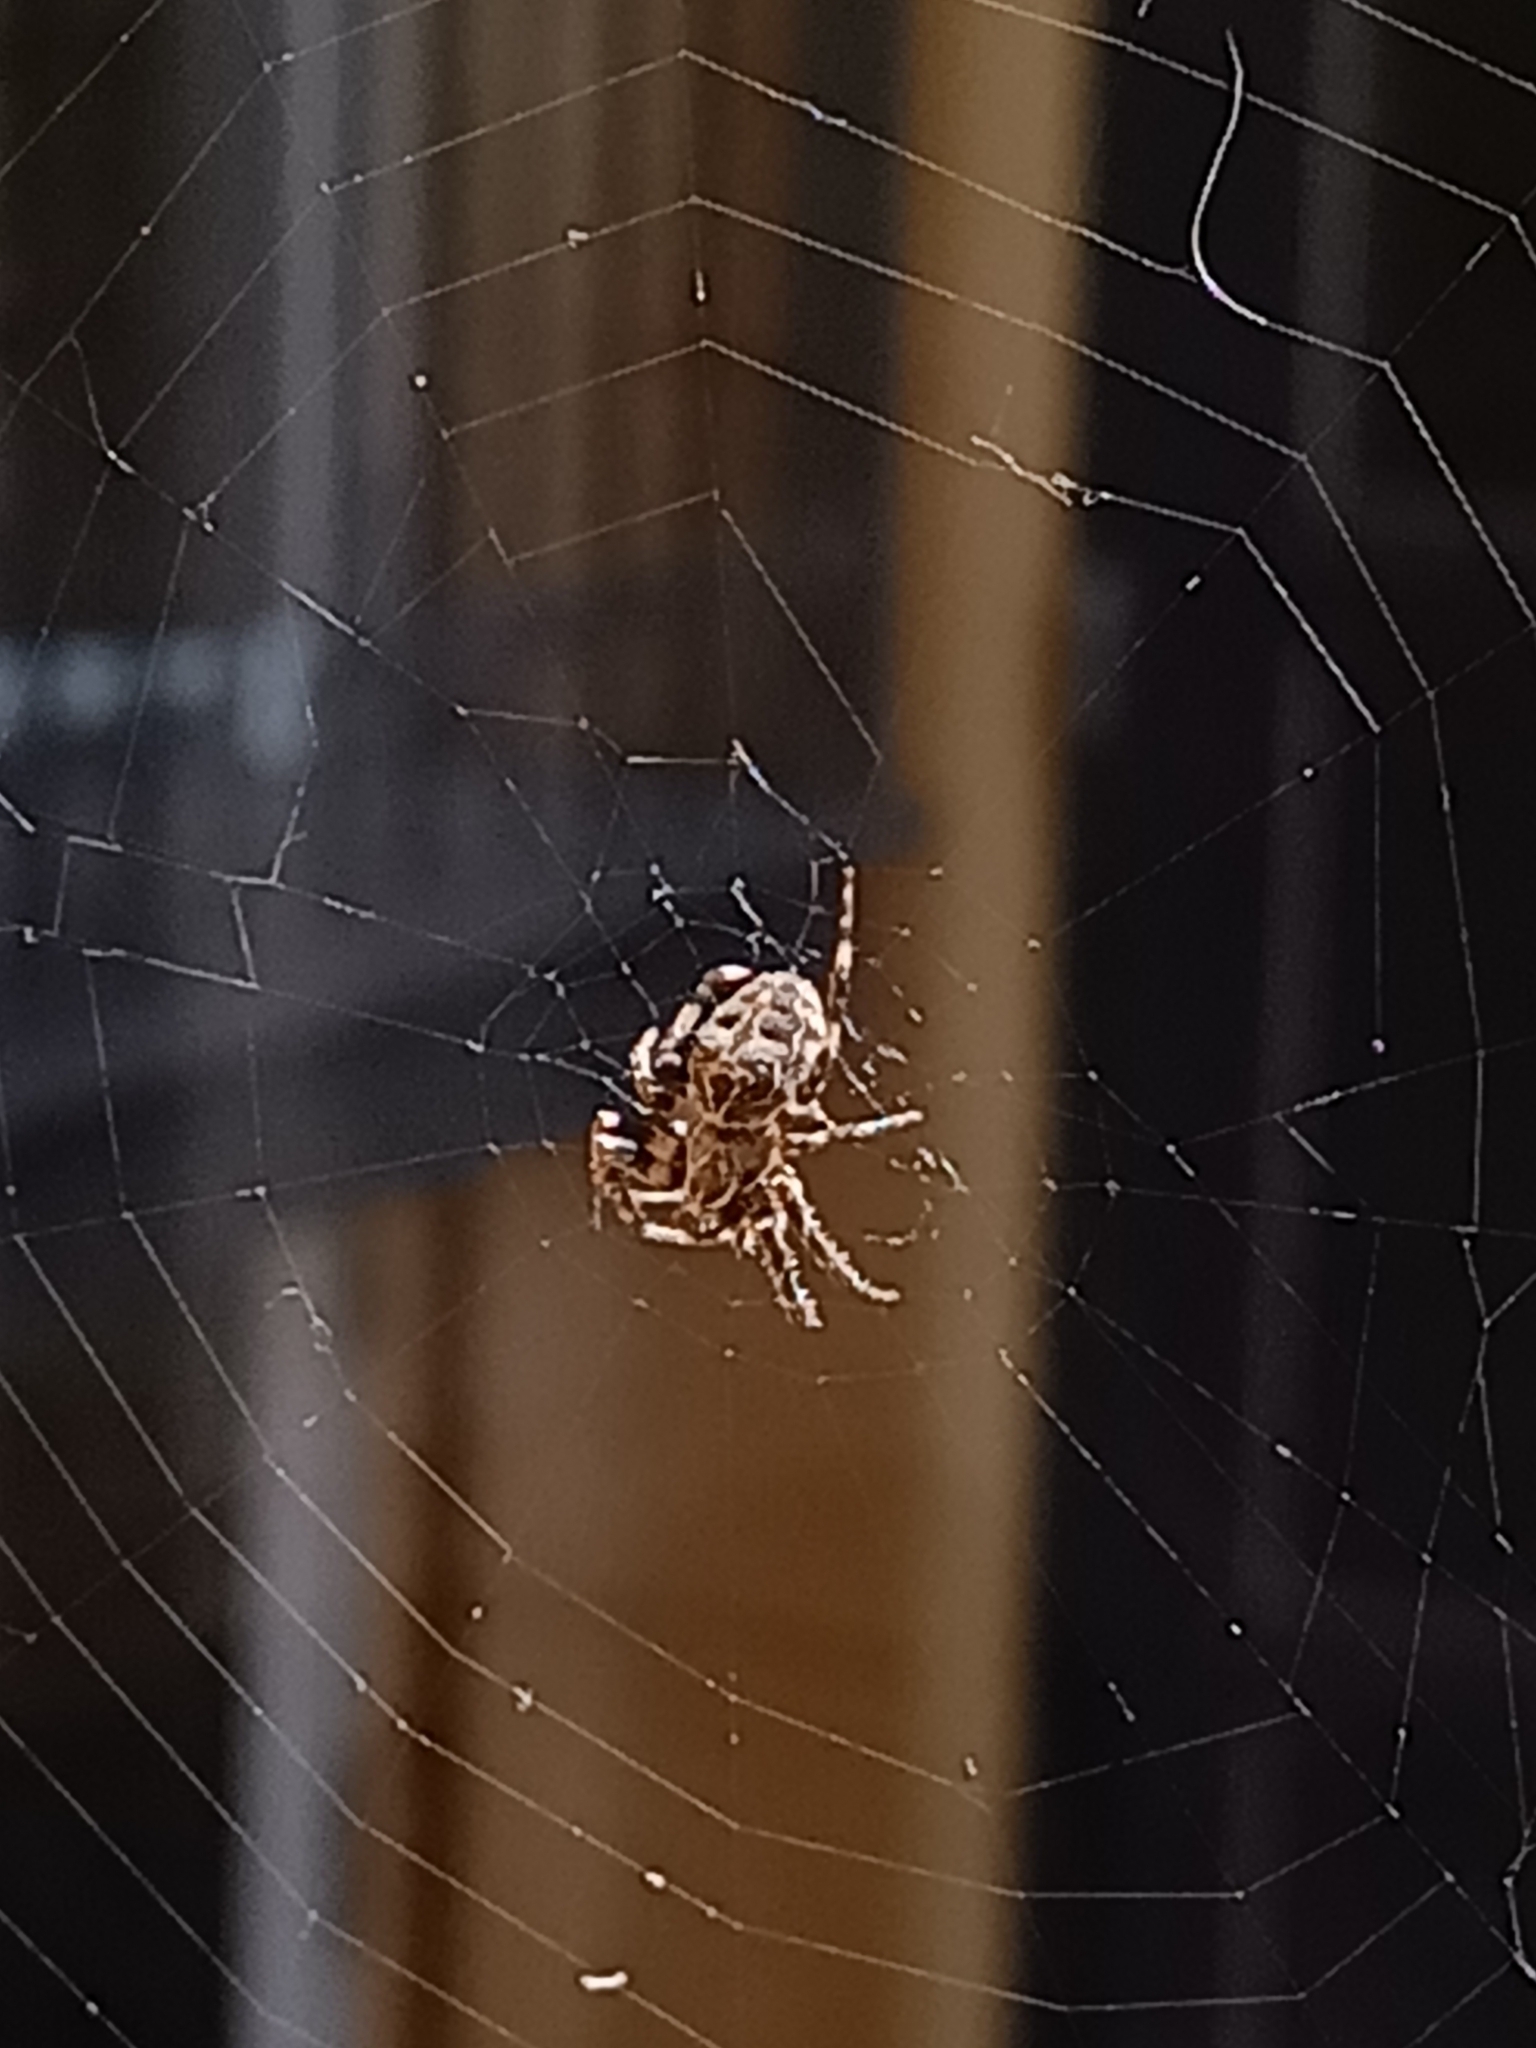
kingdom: Animalia
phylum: Arthropoda
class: Arachnida
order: Araneae
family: Araneidae
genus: Larinioides
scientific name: Larinioides sclopetarius
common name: Bridge orbweaver
